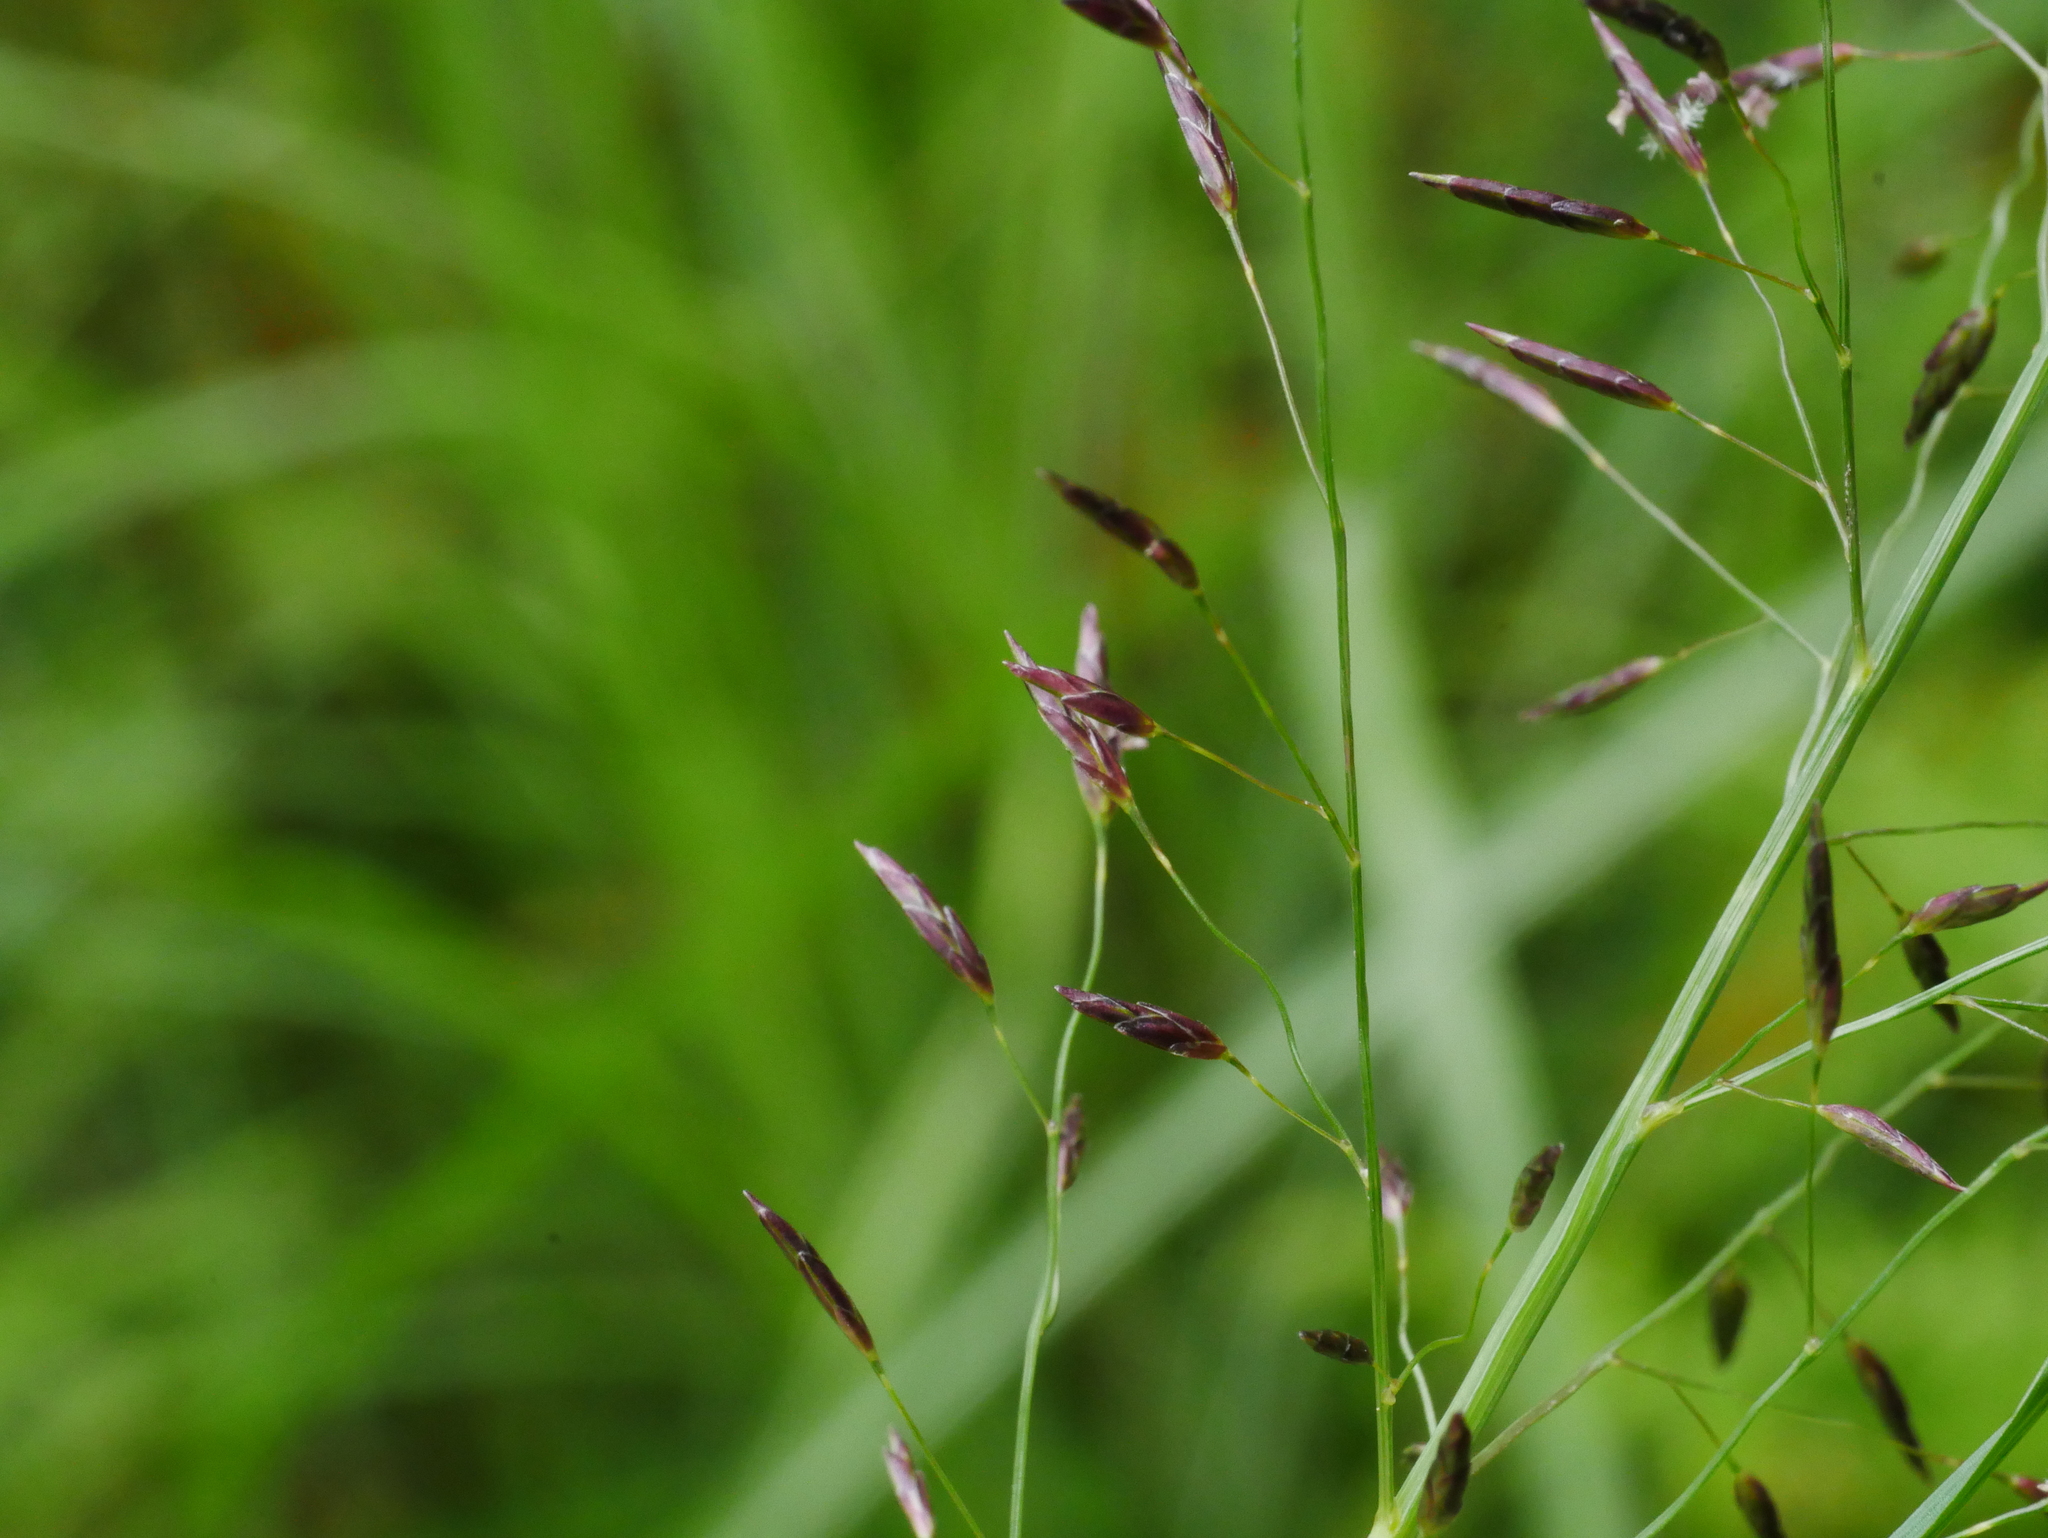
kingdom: Plantae
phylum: Tracheophyta
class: Liliopsida
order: Poales
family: Poaceae
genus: Eragrostis
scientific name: Eragrostis ferruginea
